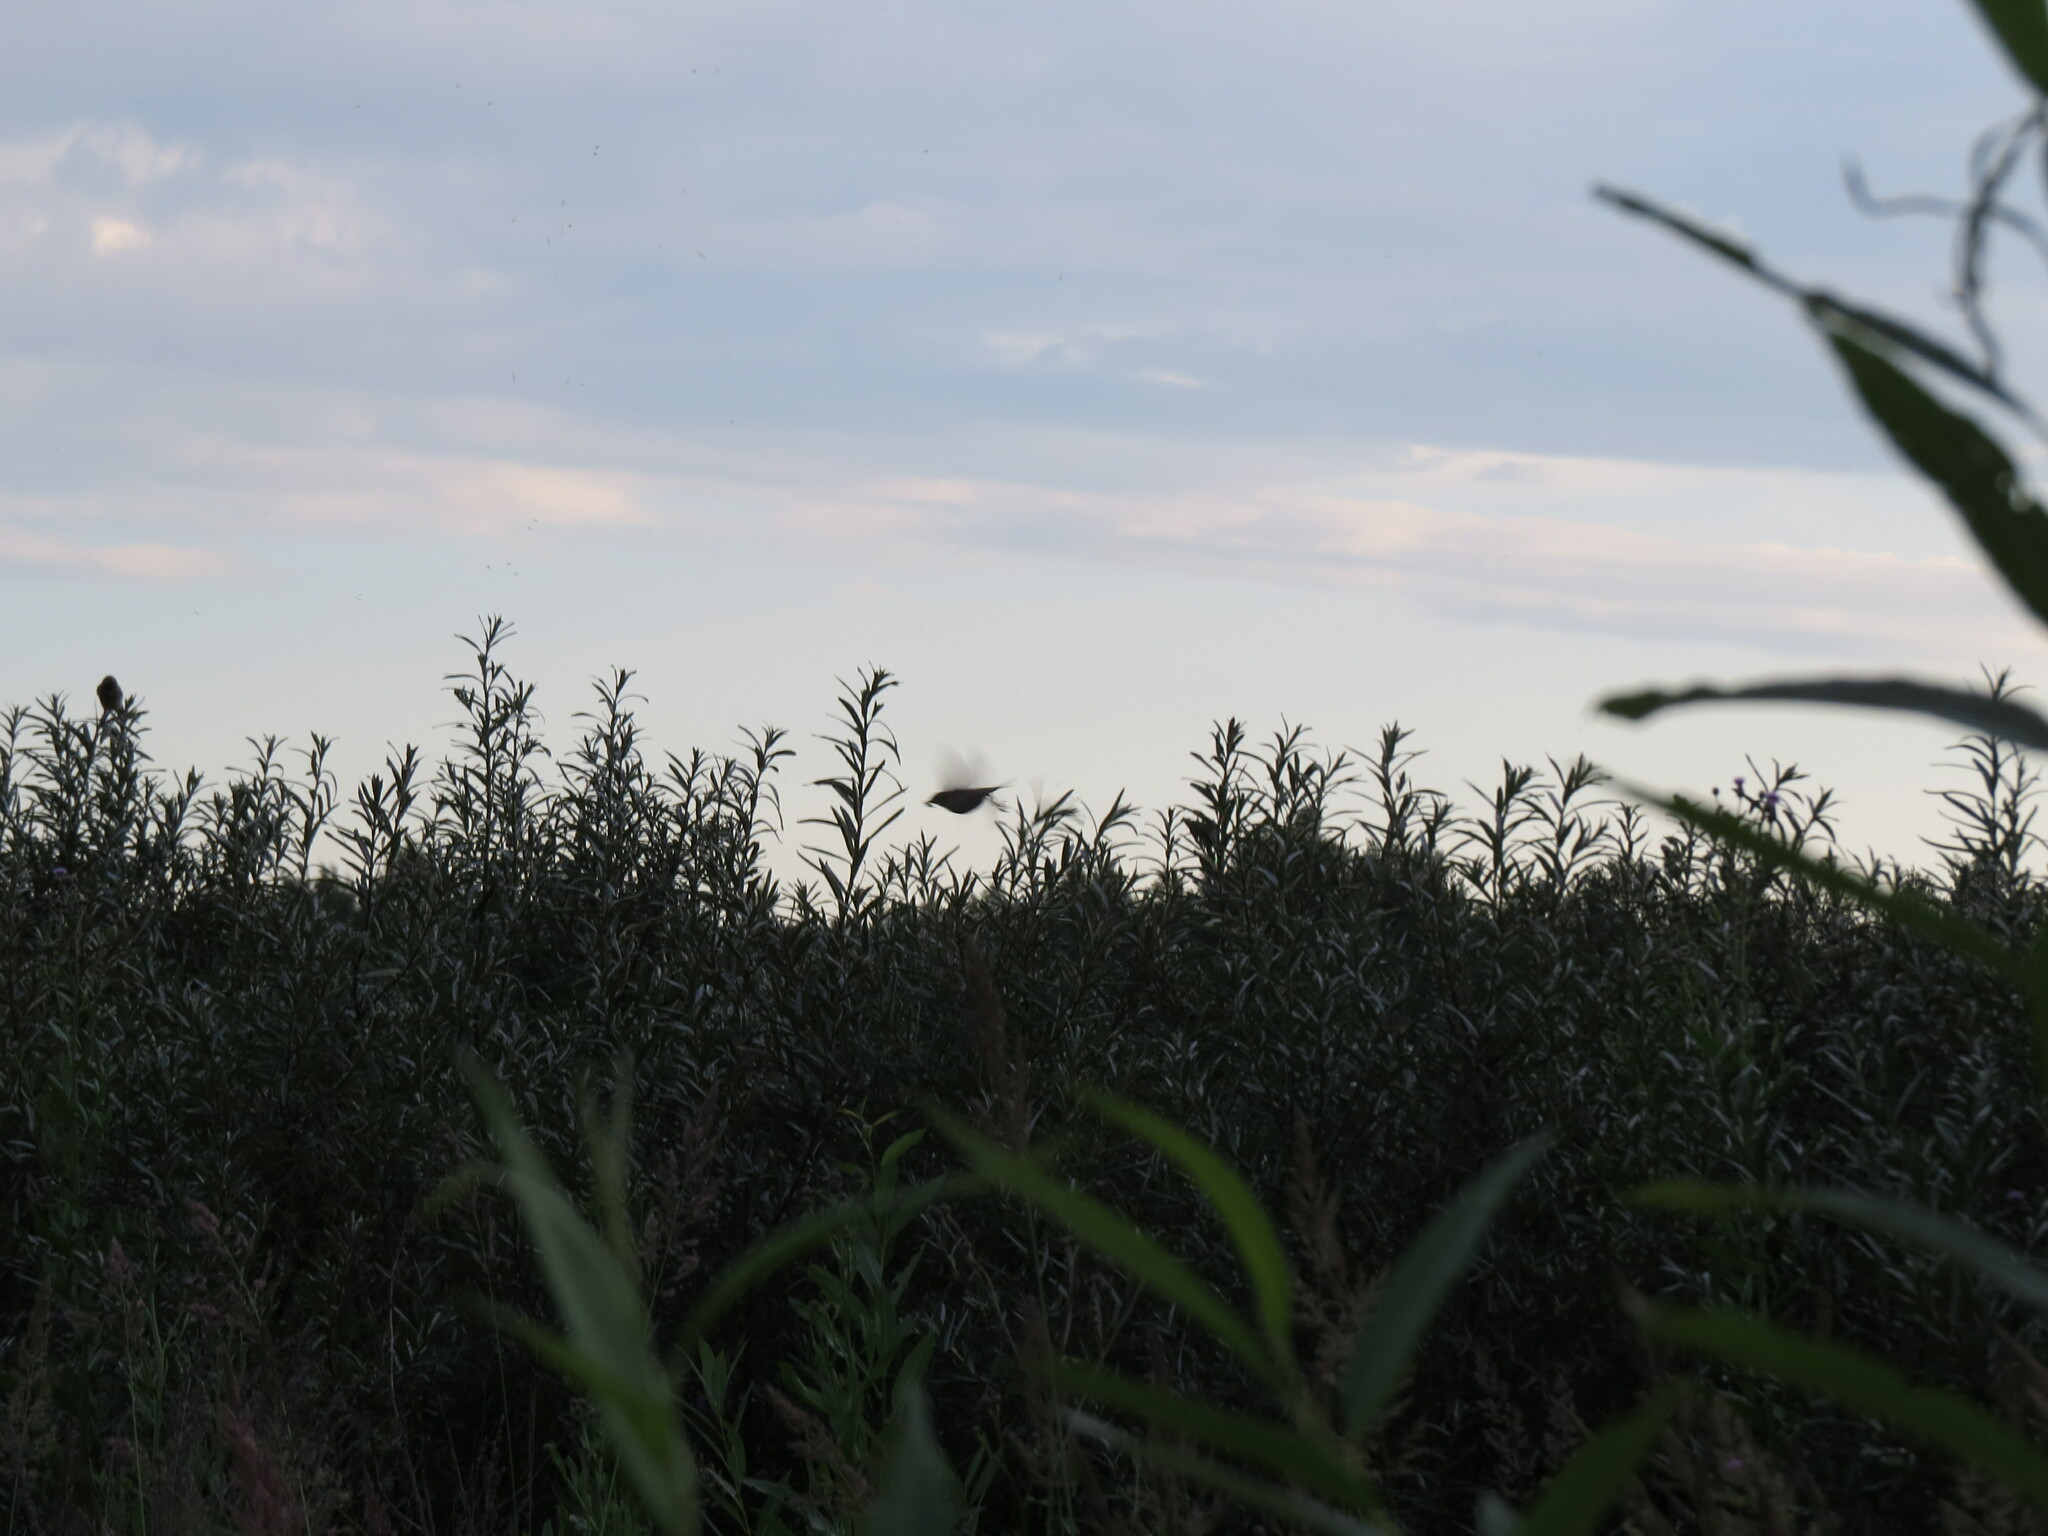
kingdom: Animalia
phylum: Chordata
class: Aves
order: Passeriformes
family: Muscicapidae
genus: Saxicola
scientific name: Saxicola maurus
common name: Siberian stonechat
